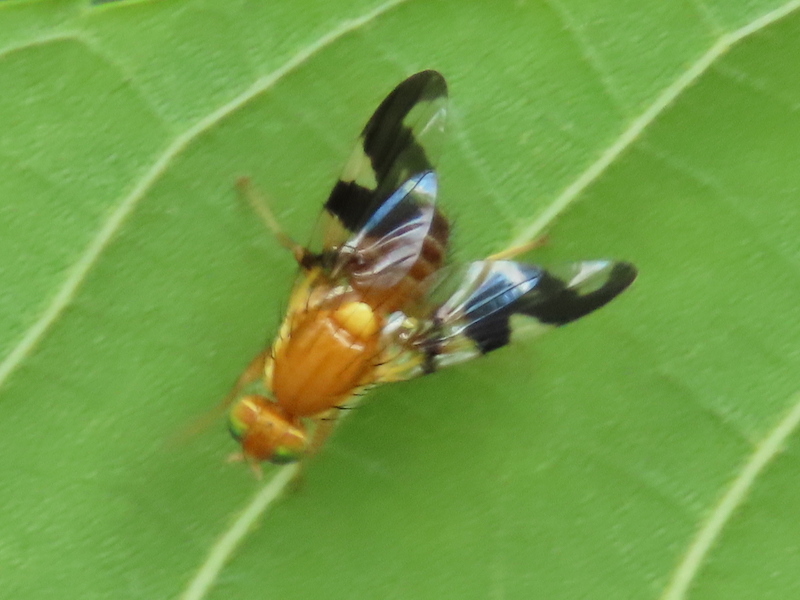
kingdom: Animalia
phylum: Arthropoda
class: Insecta
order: Diptera
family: Tephritidae
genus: Rhagoletis
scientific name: Rhagoletis suavis
